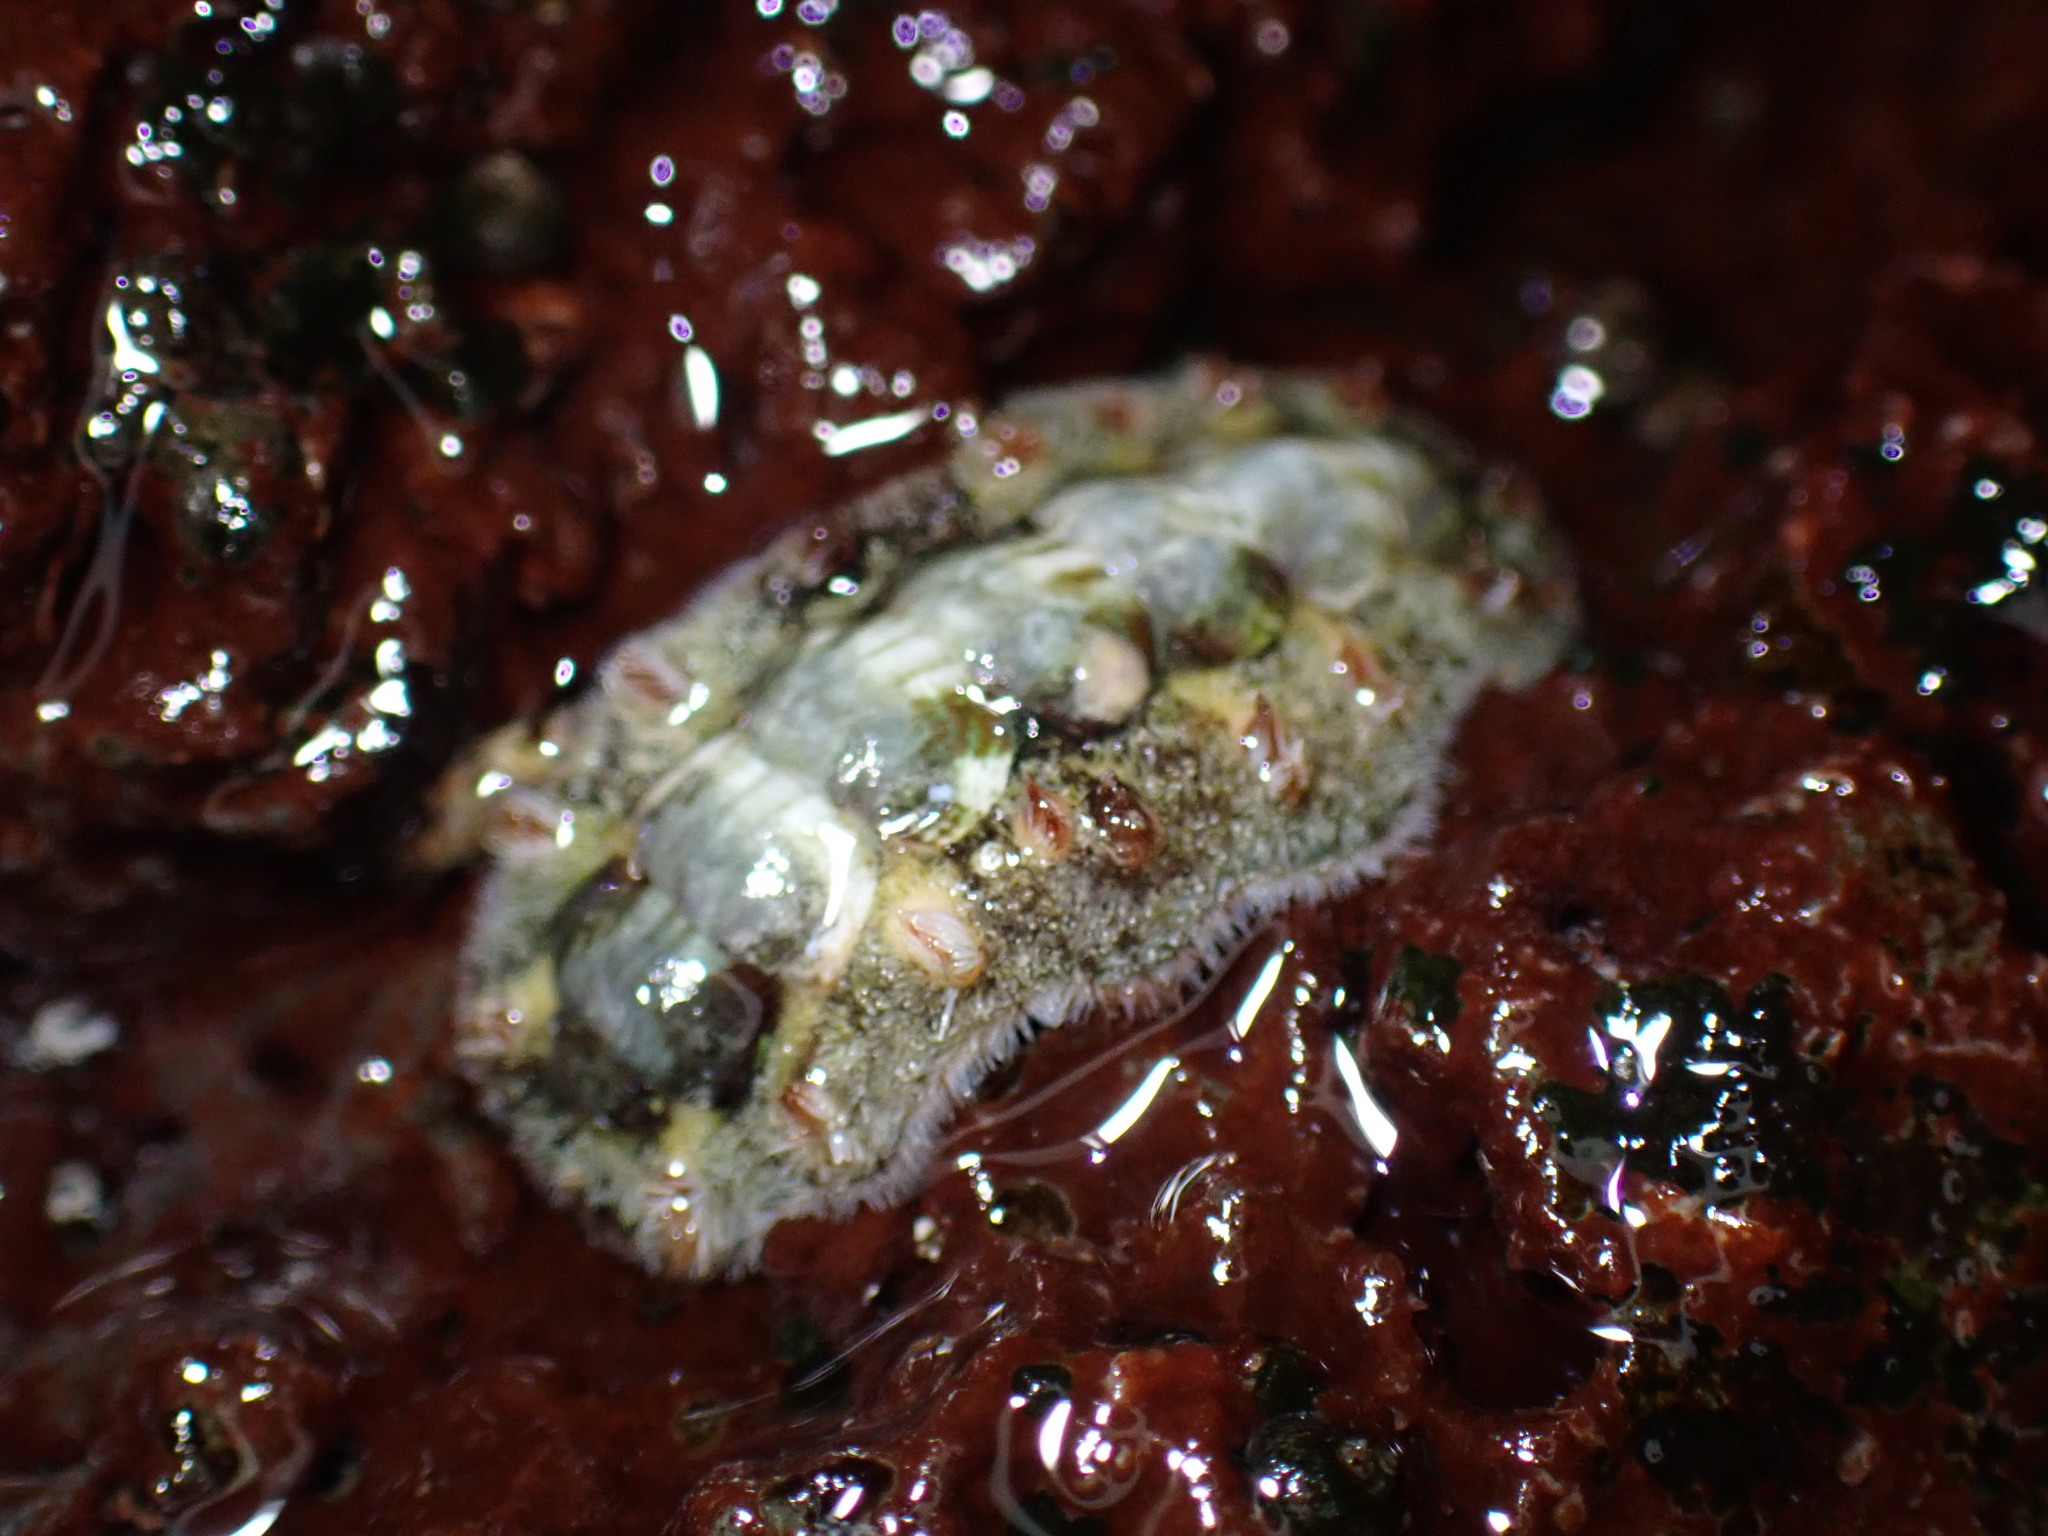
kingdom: Animalia
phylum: Mollusca
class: Polyplacophora
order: Chitonida
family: Acanthochitonidae
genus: Acanthochitona
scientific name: Acanthochitona armata
